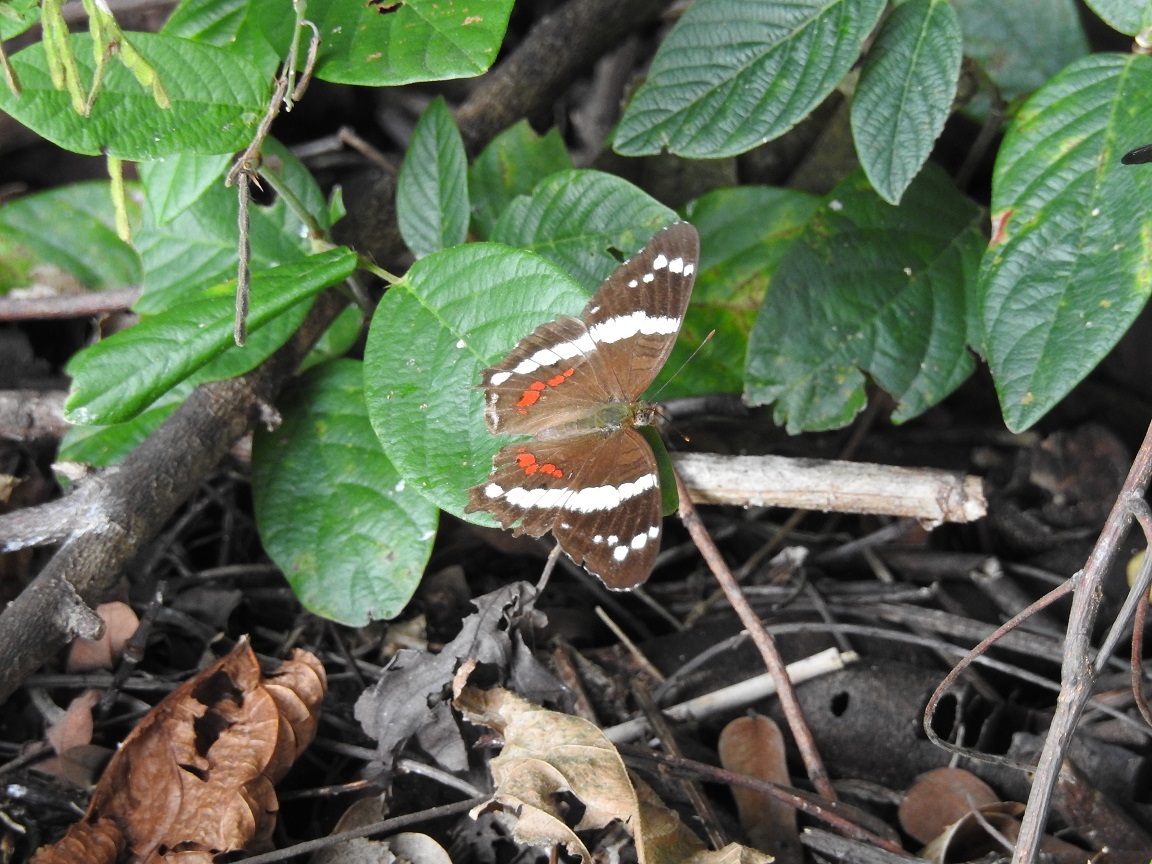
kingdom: Animalia
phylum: Arthropoda
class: Insecta
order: Lepidoptera
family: Nymphalidae
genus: Anartia
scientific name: Anartia fatima
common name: Banded peacock
